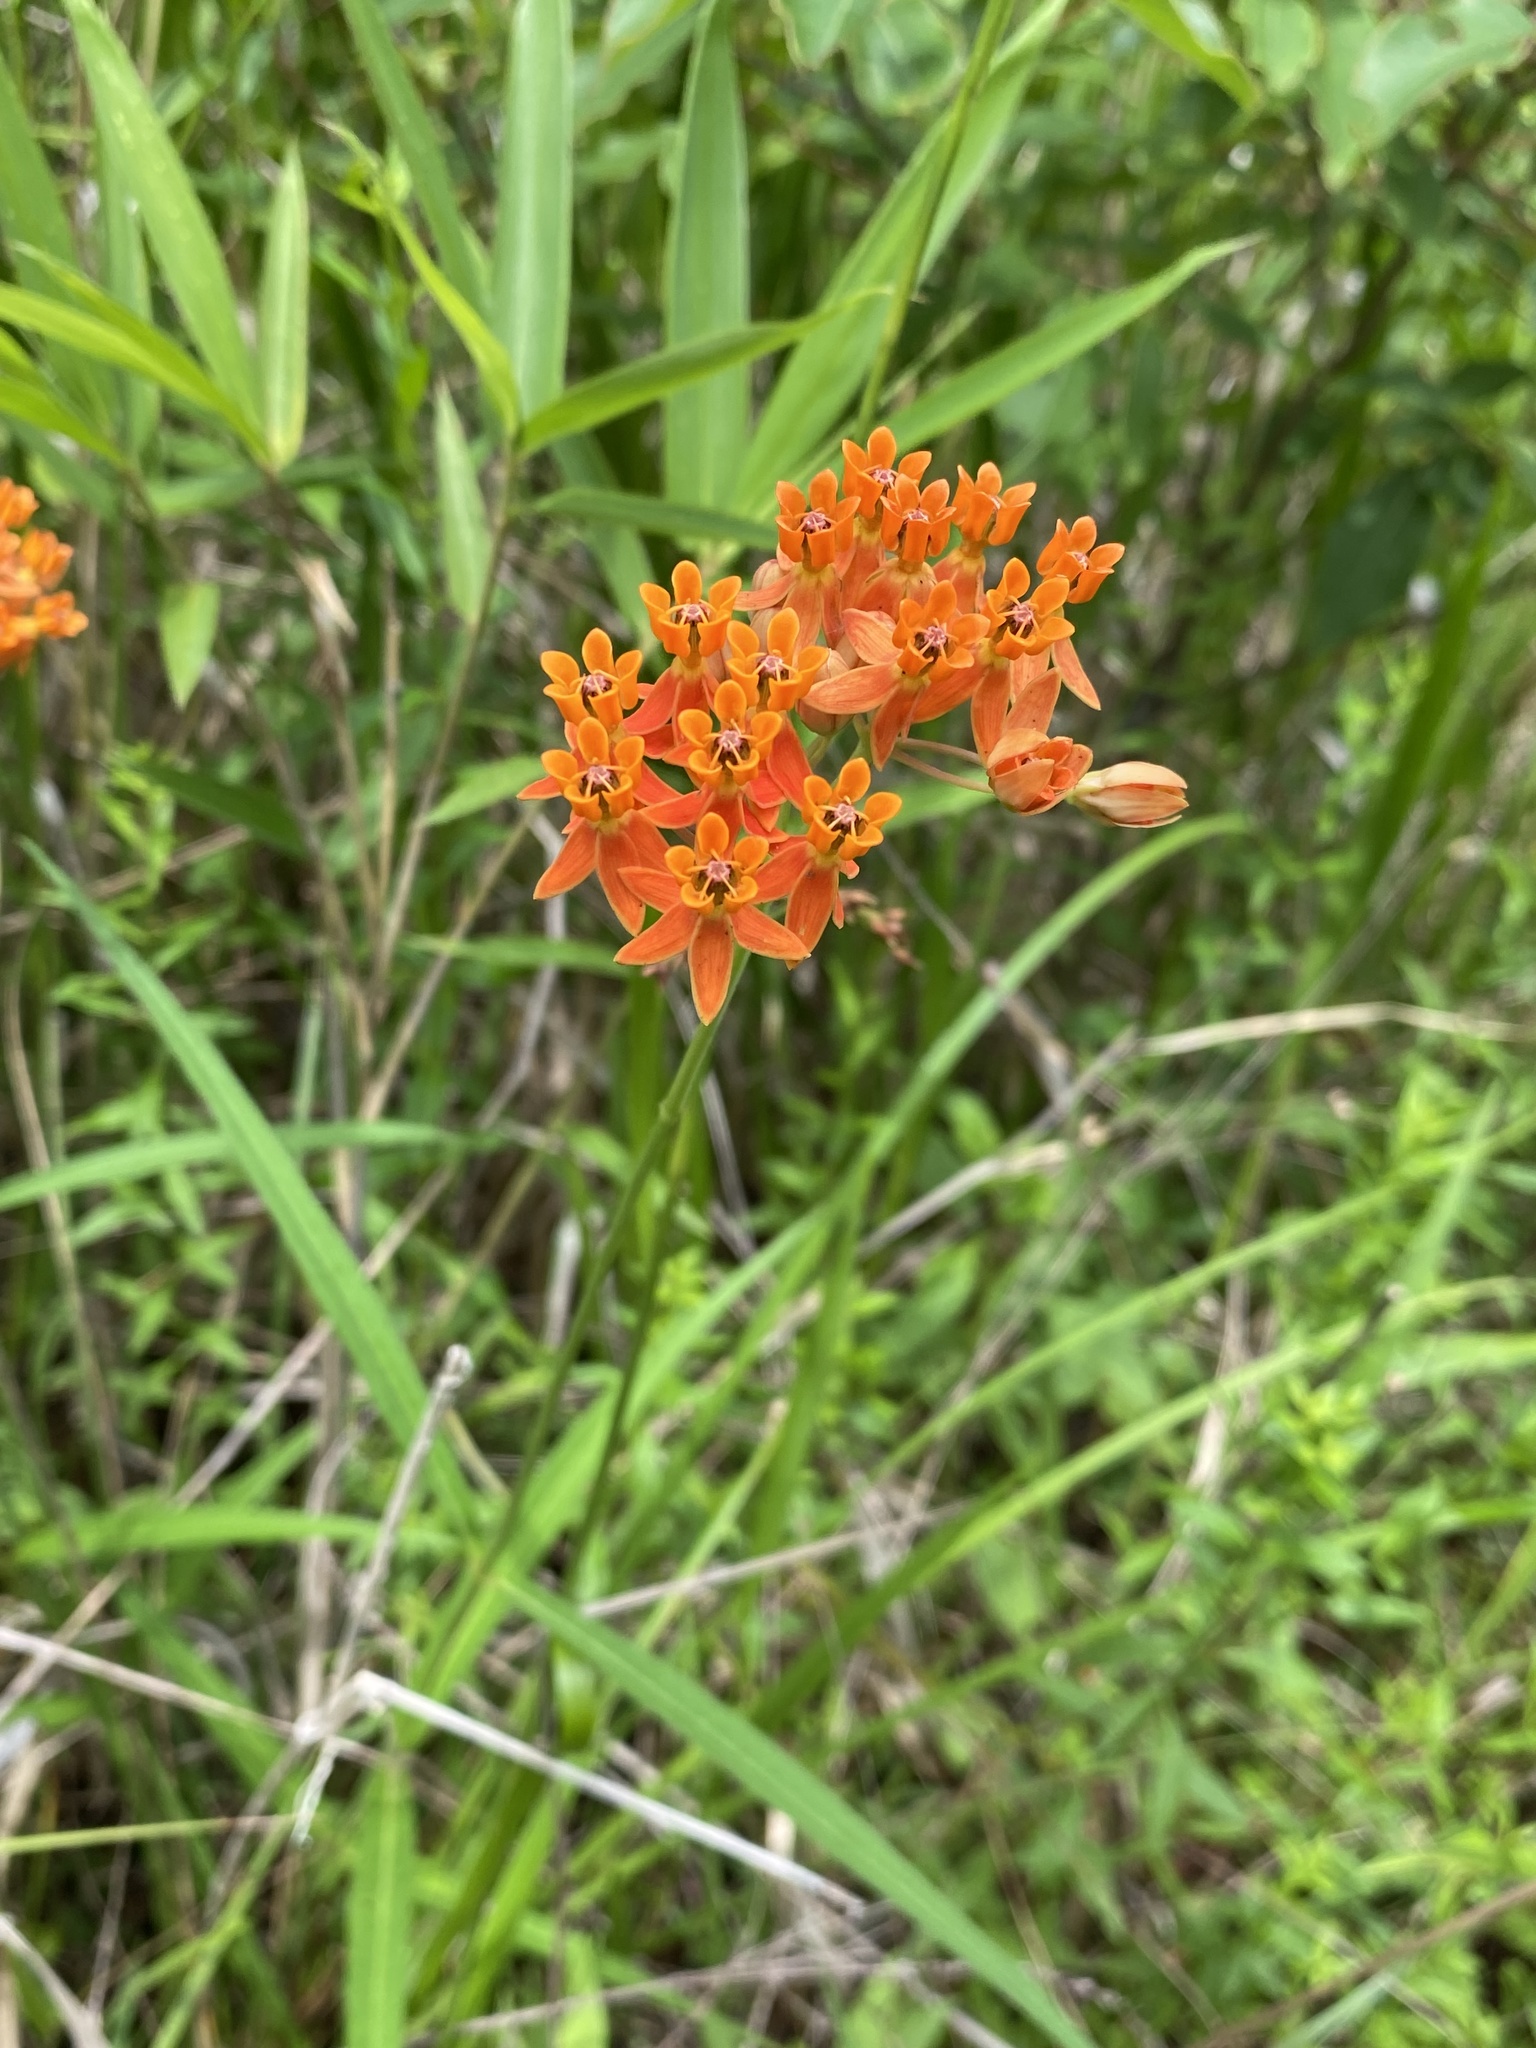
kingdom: Plantae
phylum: Tracheophyta
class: Magnoliopsida
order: Gentianales
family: Apocynaceae
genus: Asclepias
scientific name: Asclepias lanceolata
